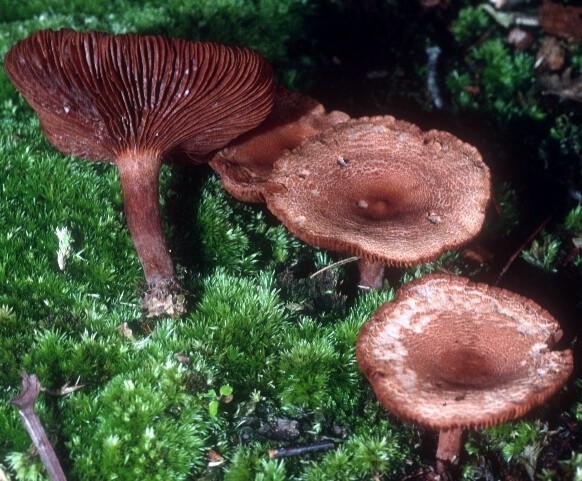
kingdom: Fungi
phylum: Basidiomycota
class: Agaricomycetes
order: Russulales
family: Russulaceae
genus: Lactarius
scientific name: Lactarius rimosellus
